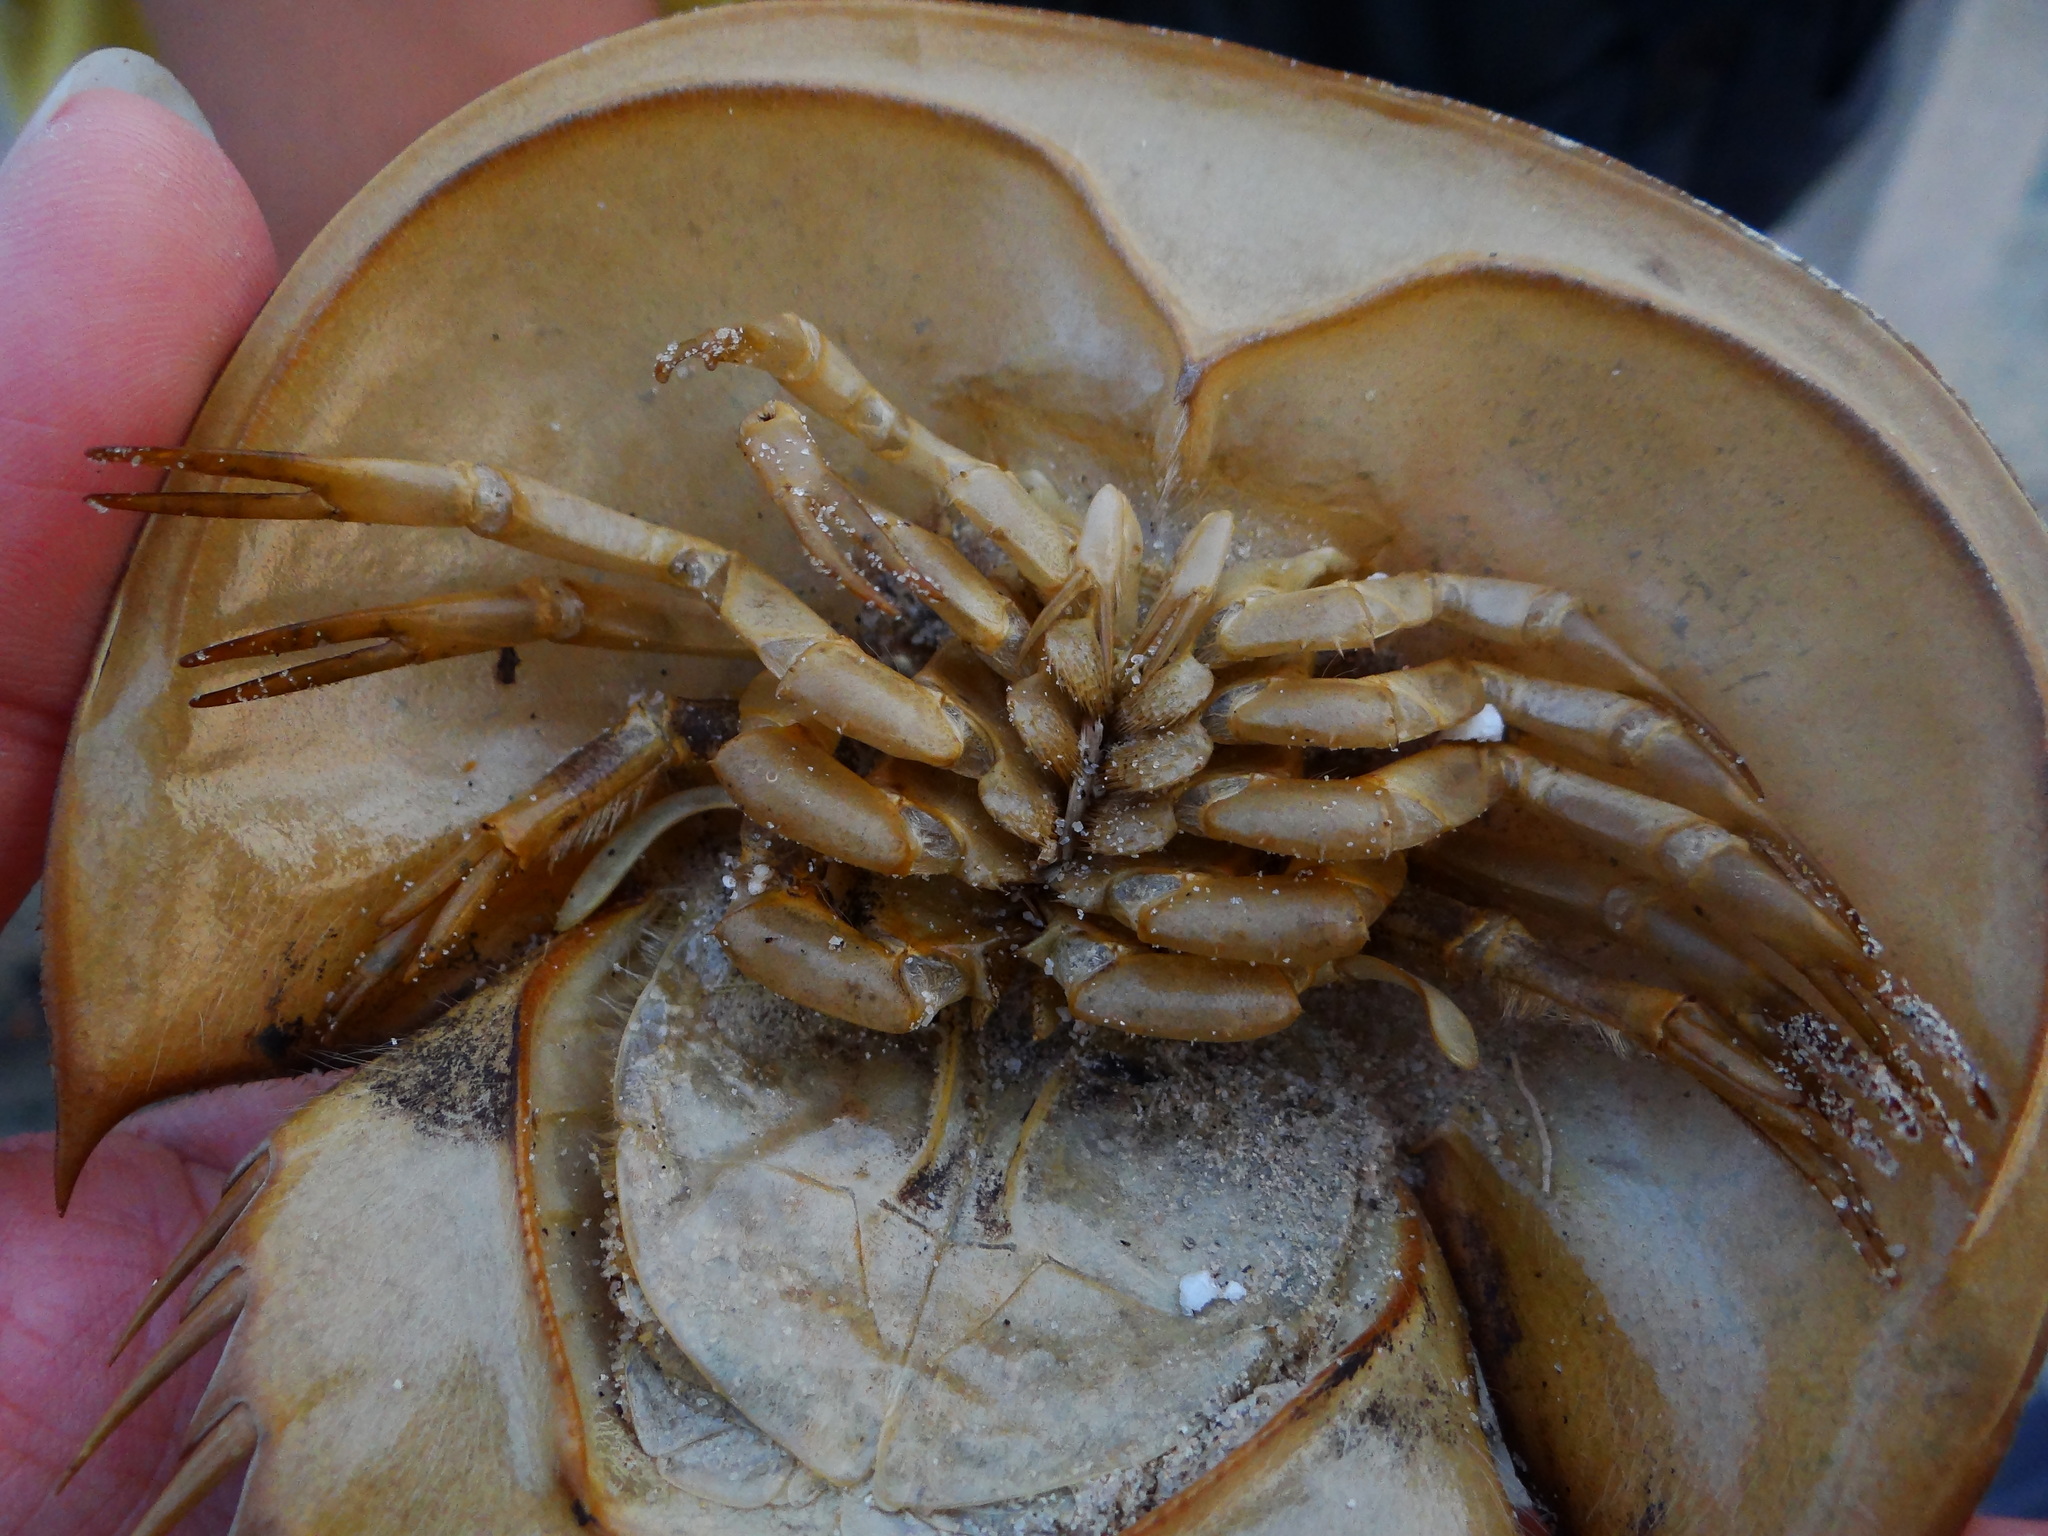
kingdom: Animalia
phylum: Arthropoda
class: Merostomata
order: Xiphosurida
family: Limulidae
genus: Tachypleus
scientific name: Tachypleus tridentatus
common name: Tri-spine horseshoe crab
